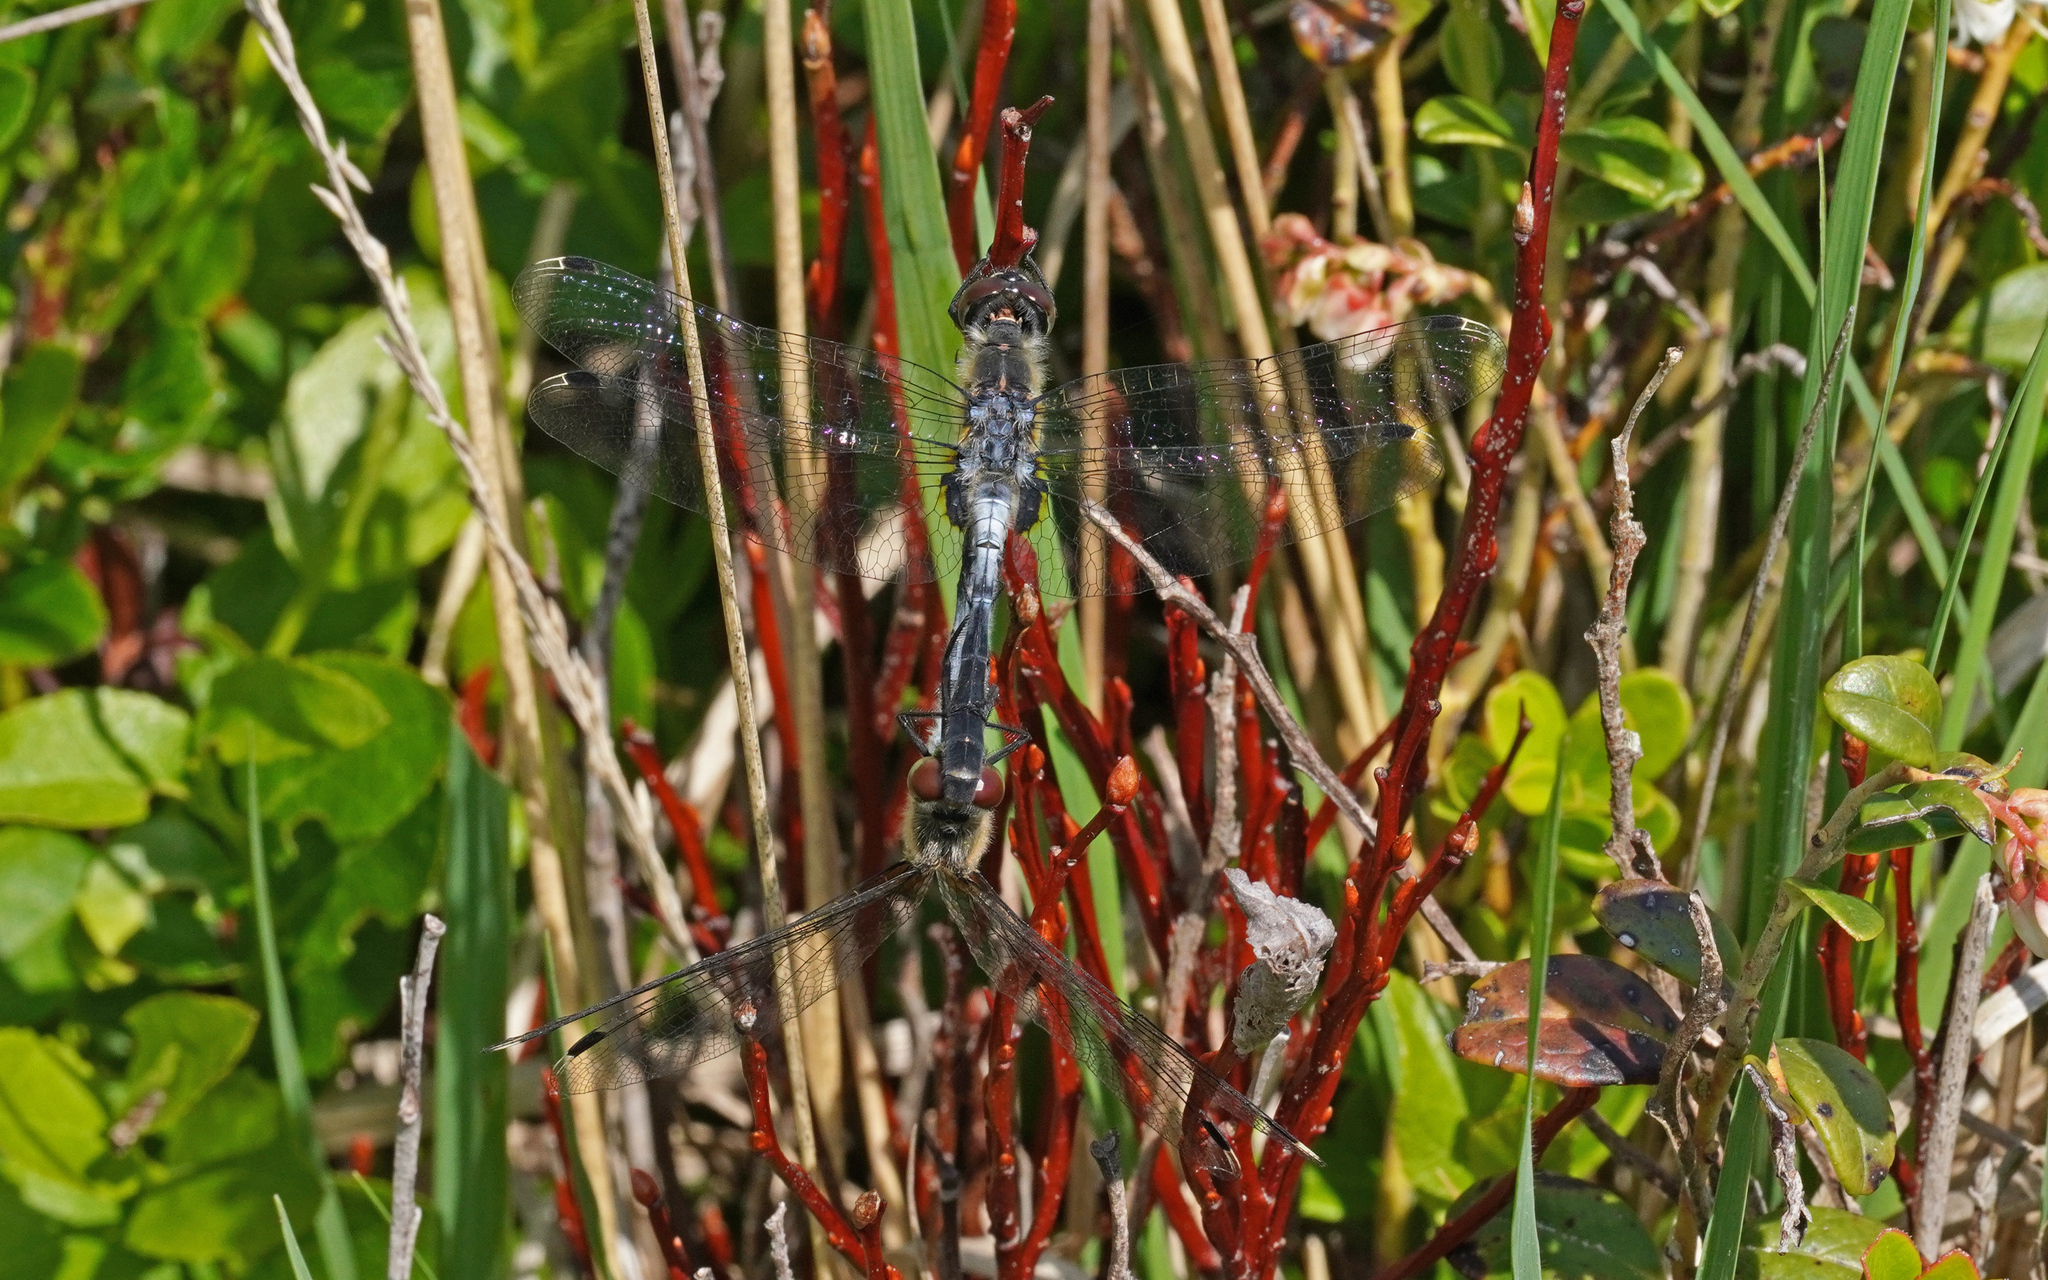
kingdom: Animalia
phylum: Arthropoda
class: Insecta
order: Odonata
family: Libellulidae
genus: Leucorrhinia
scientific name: Leucorrhinia albifrons
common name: Dark whiteface
